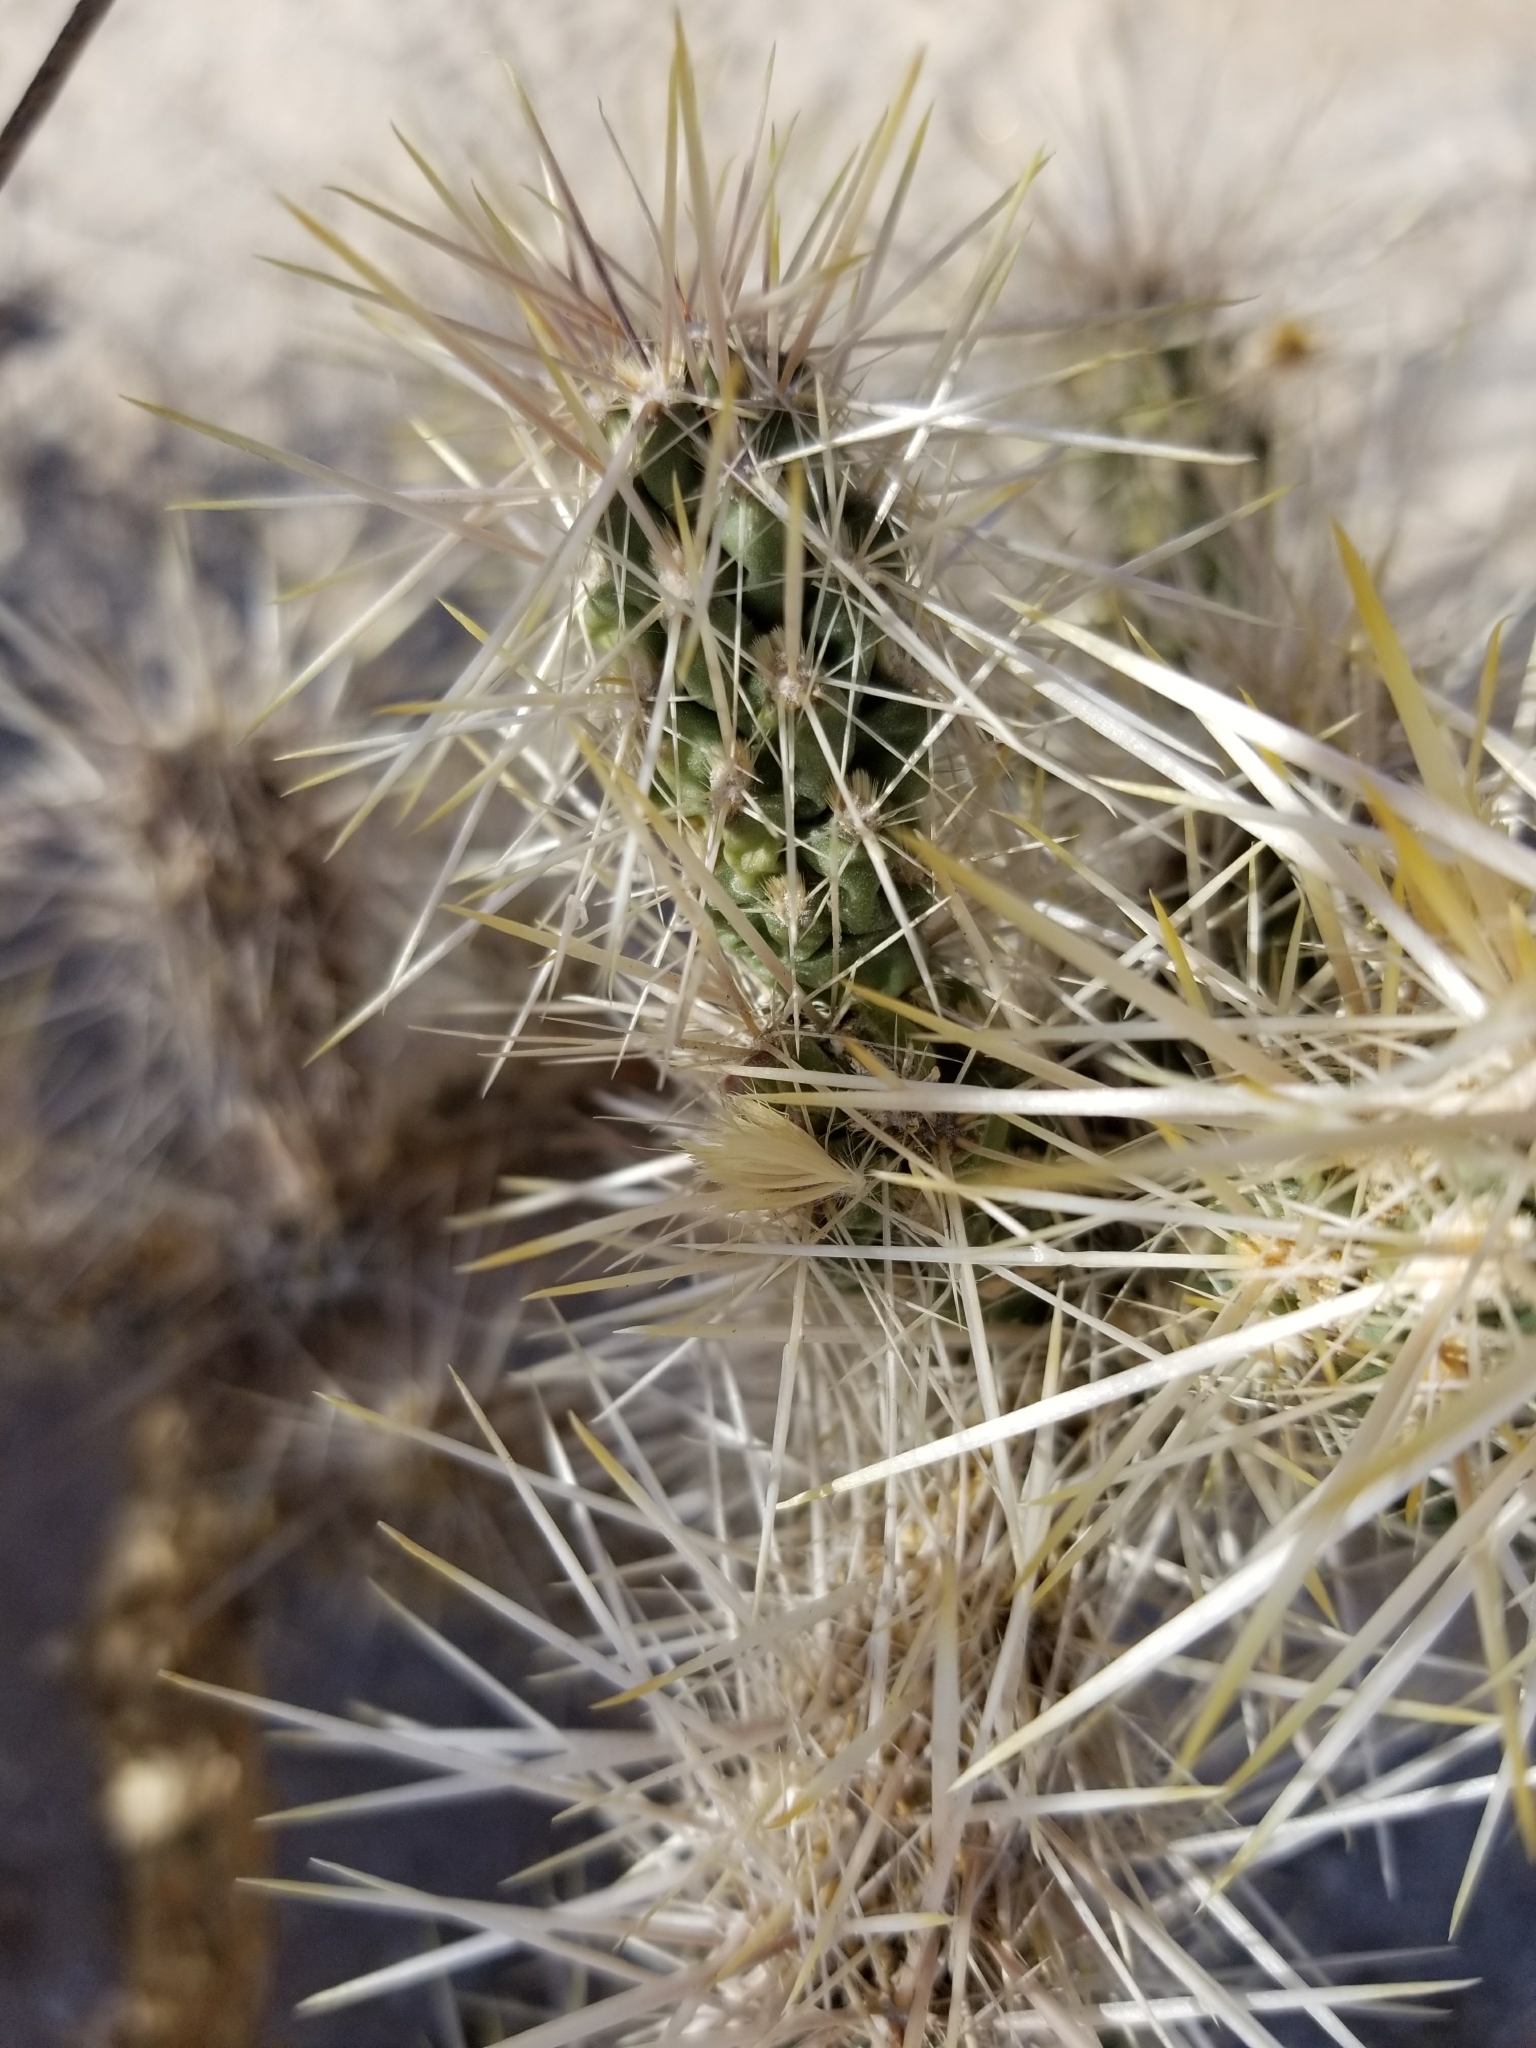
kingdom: Plantae
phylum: Tracheophyta
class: Magnoliopsida
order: Caryophyllales
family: Cactaceae
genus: Cylindropuntia
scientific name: Cylindropuntia echinocarpa
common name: Ground cholla
